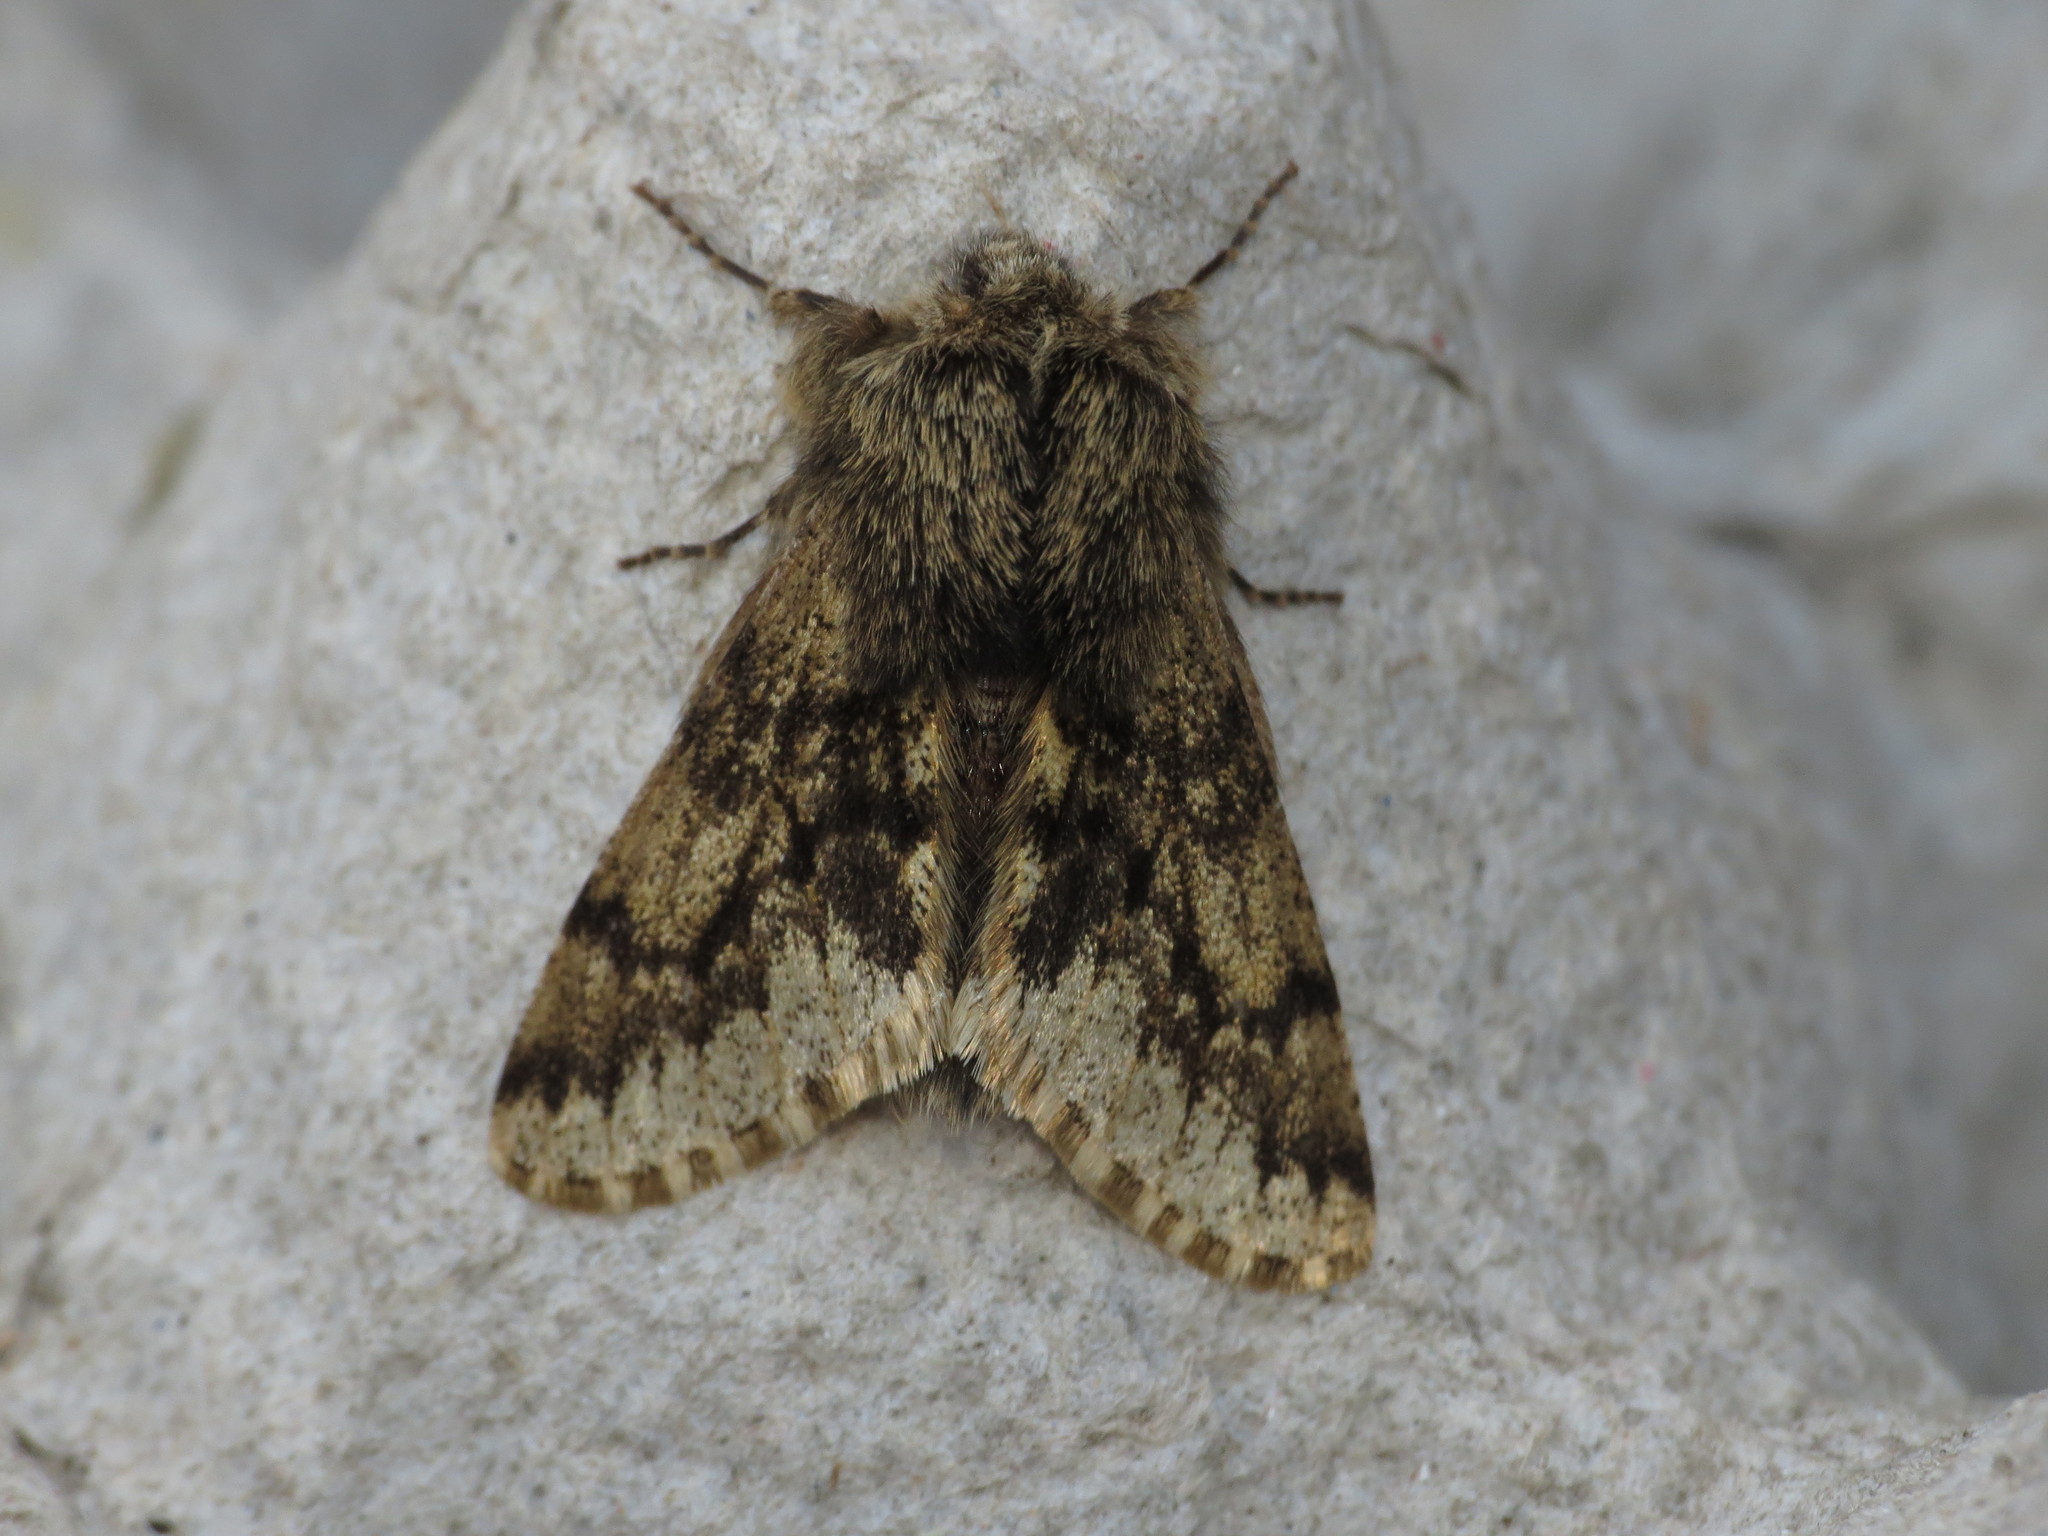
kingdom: Animalia
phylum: Arthropoda
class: Insecta
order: Lepidoptera
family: Geometridae
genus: Apocheima
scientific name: Apocheima hispidaria
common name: Small brindled beauty
